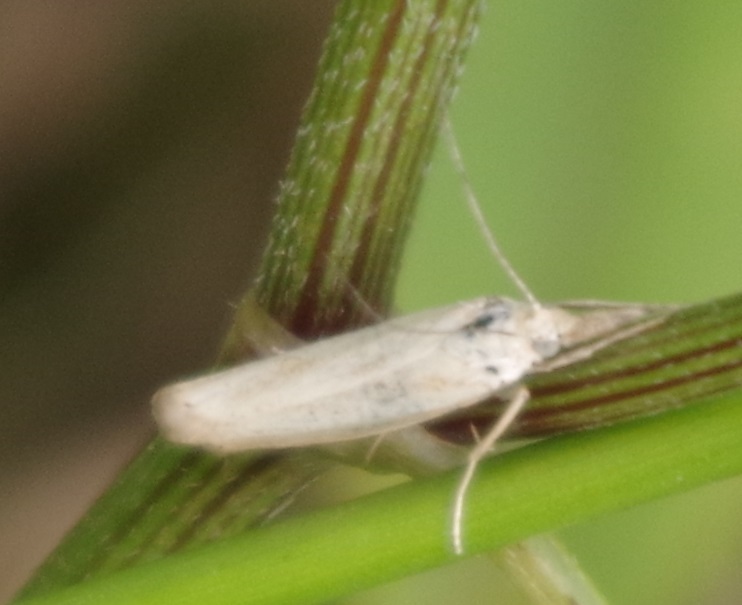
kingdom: Animalia
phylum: Arthropoda
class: Insecta
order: Lepidoptera
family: Crambidae
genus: Agriphila
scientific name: Agriphila straminella
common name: Straw grass-veneer
